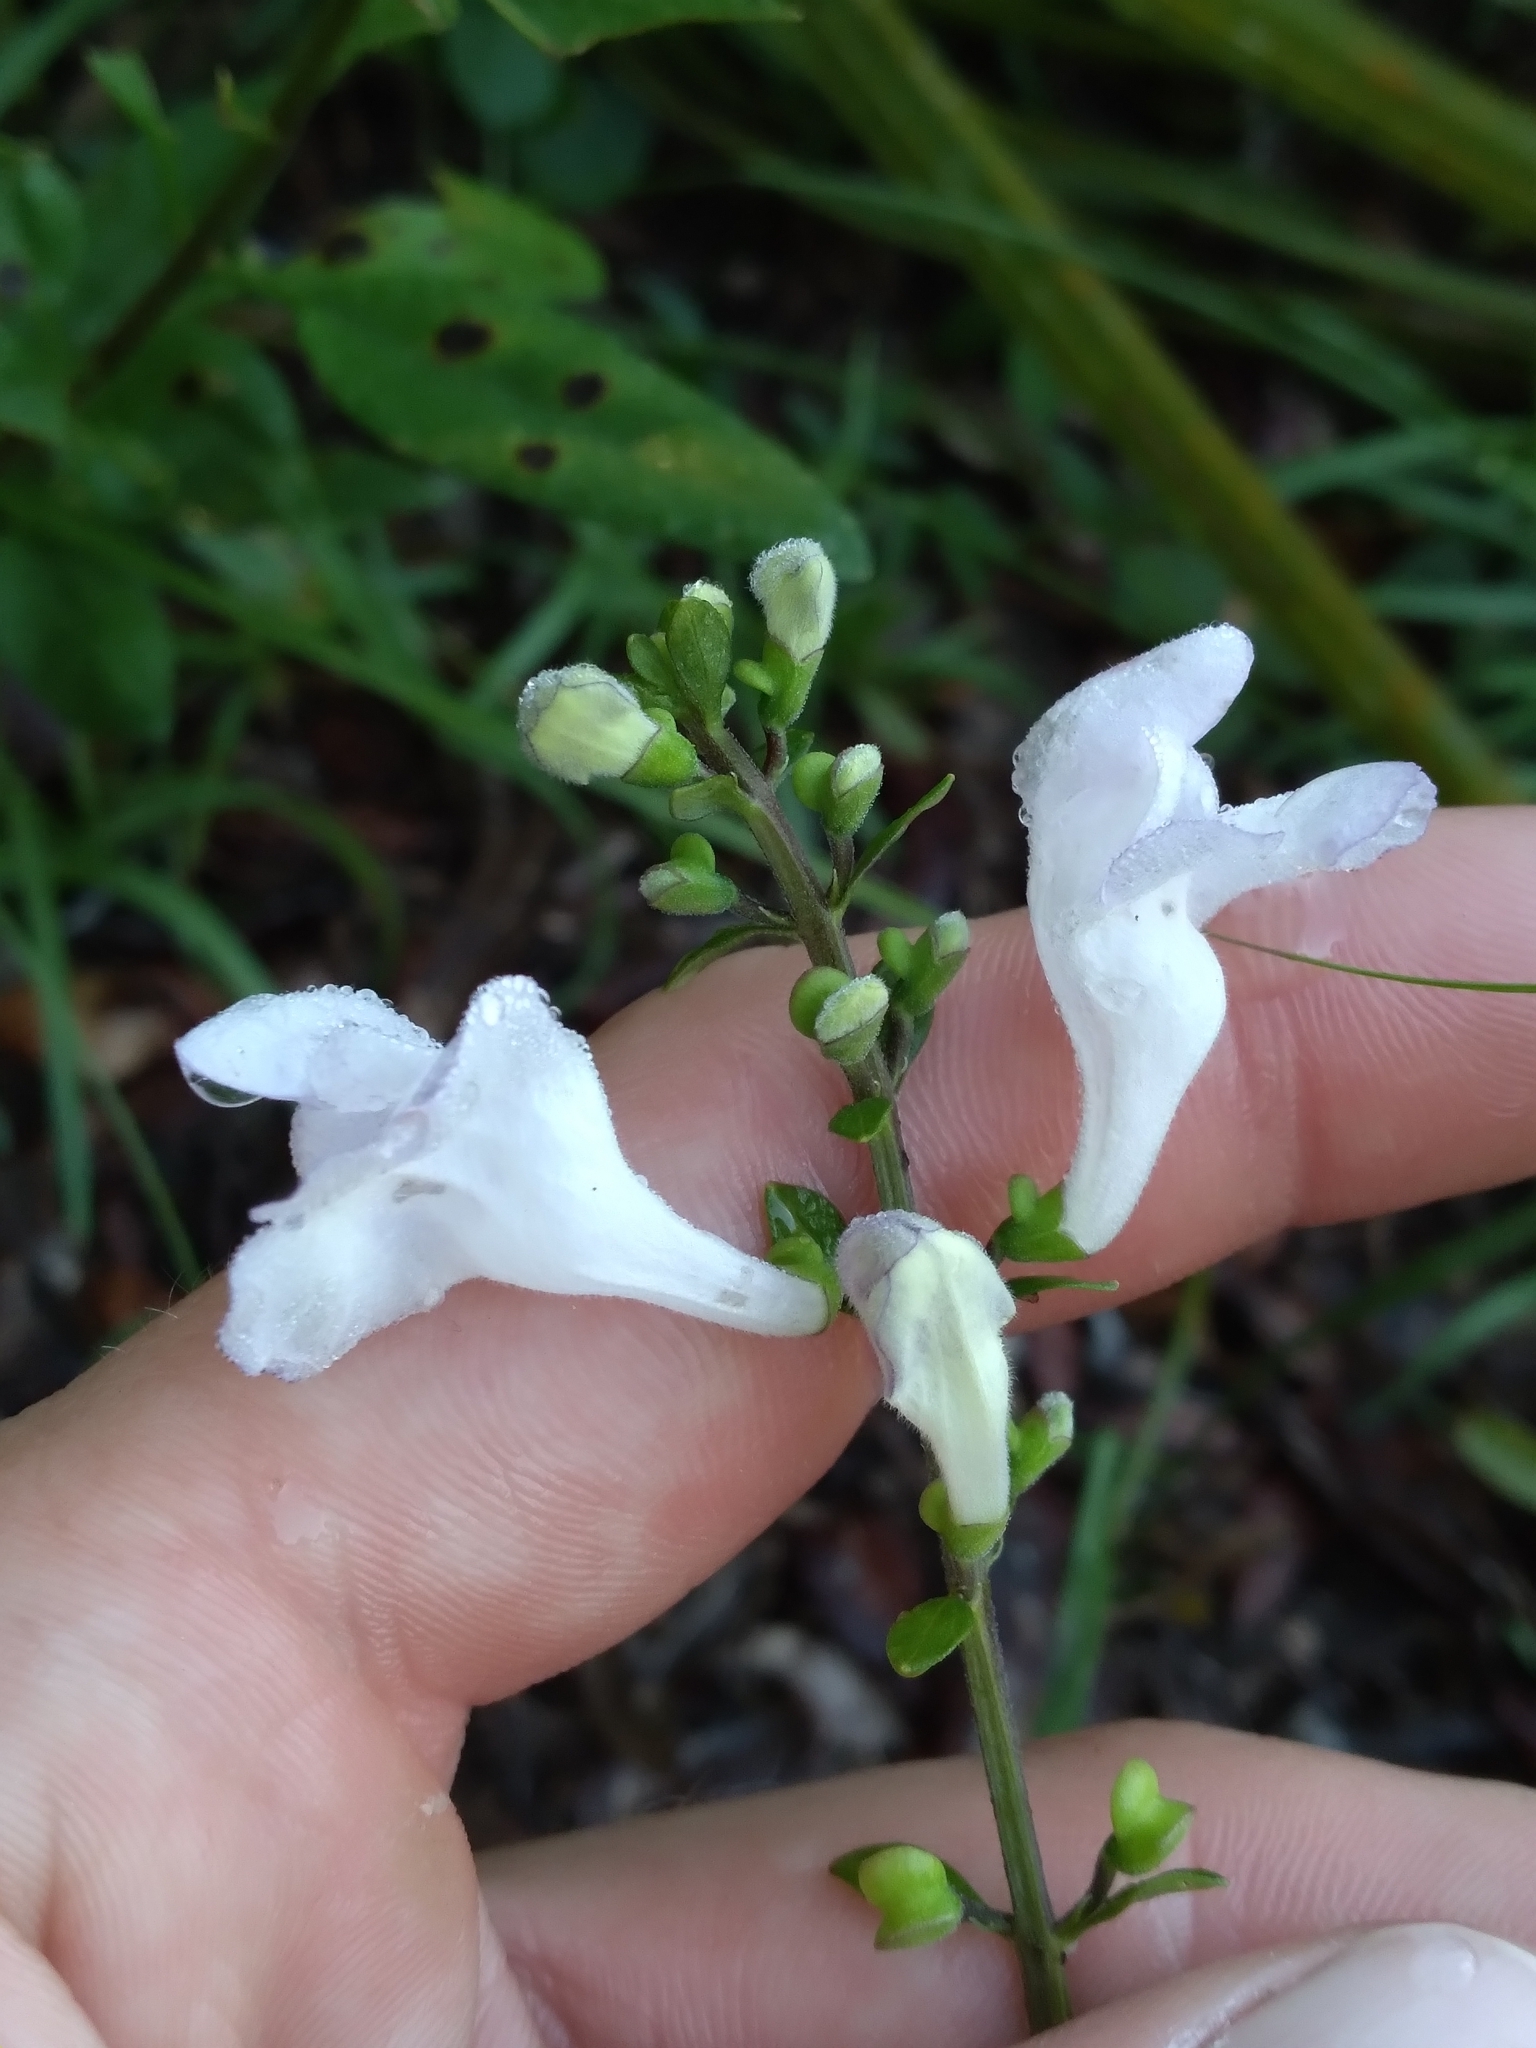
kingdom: Plantae
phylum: Tracheophyta
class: Magnoliopsida
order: Lamiales
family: Lamiaceae
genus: Scutellaria
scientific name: Scutellaria arenicola
